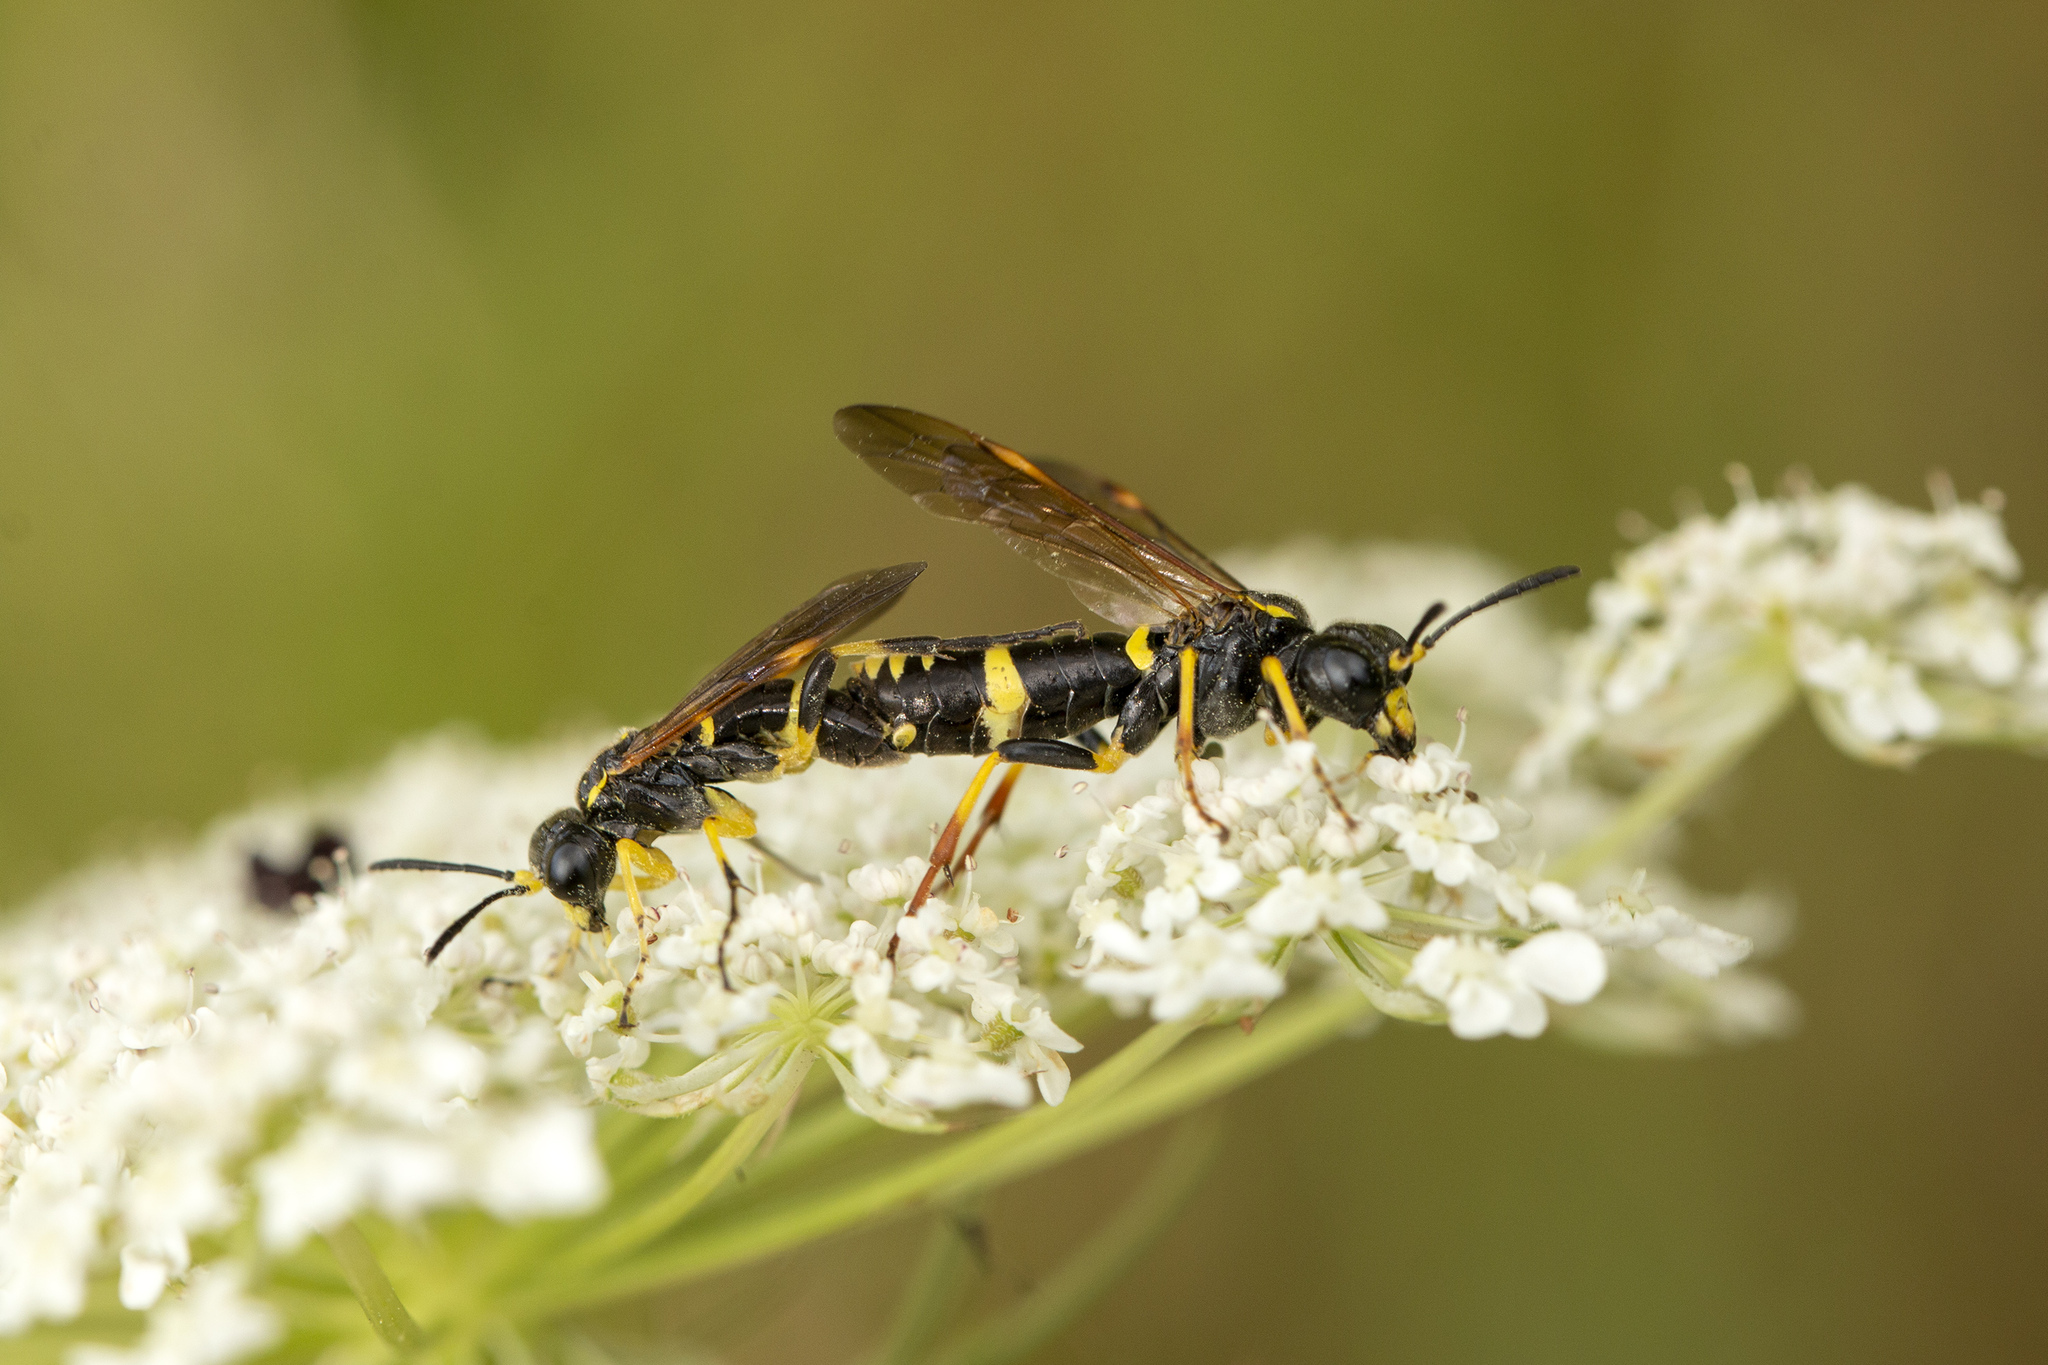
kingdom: Animalia
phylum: Arthropoda
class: Insecta
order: Hymenoptera
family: Tenthredinidae
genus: Tenthredo
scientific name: Tenthredo amoena
